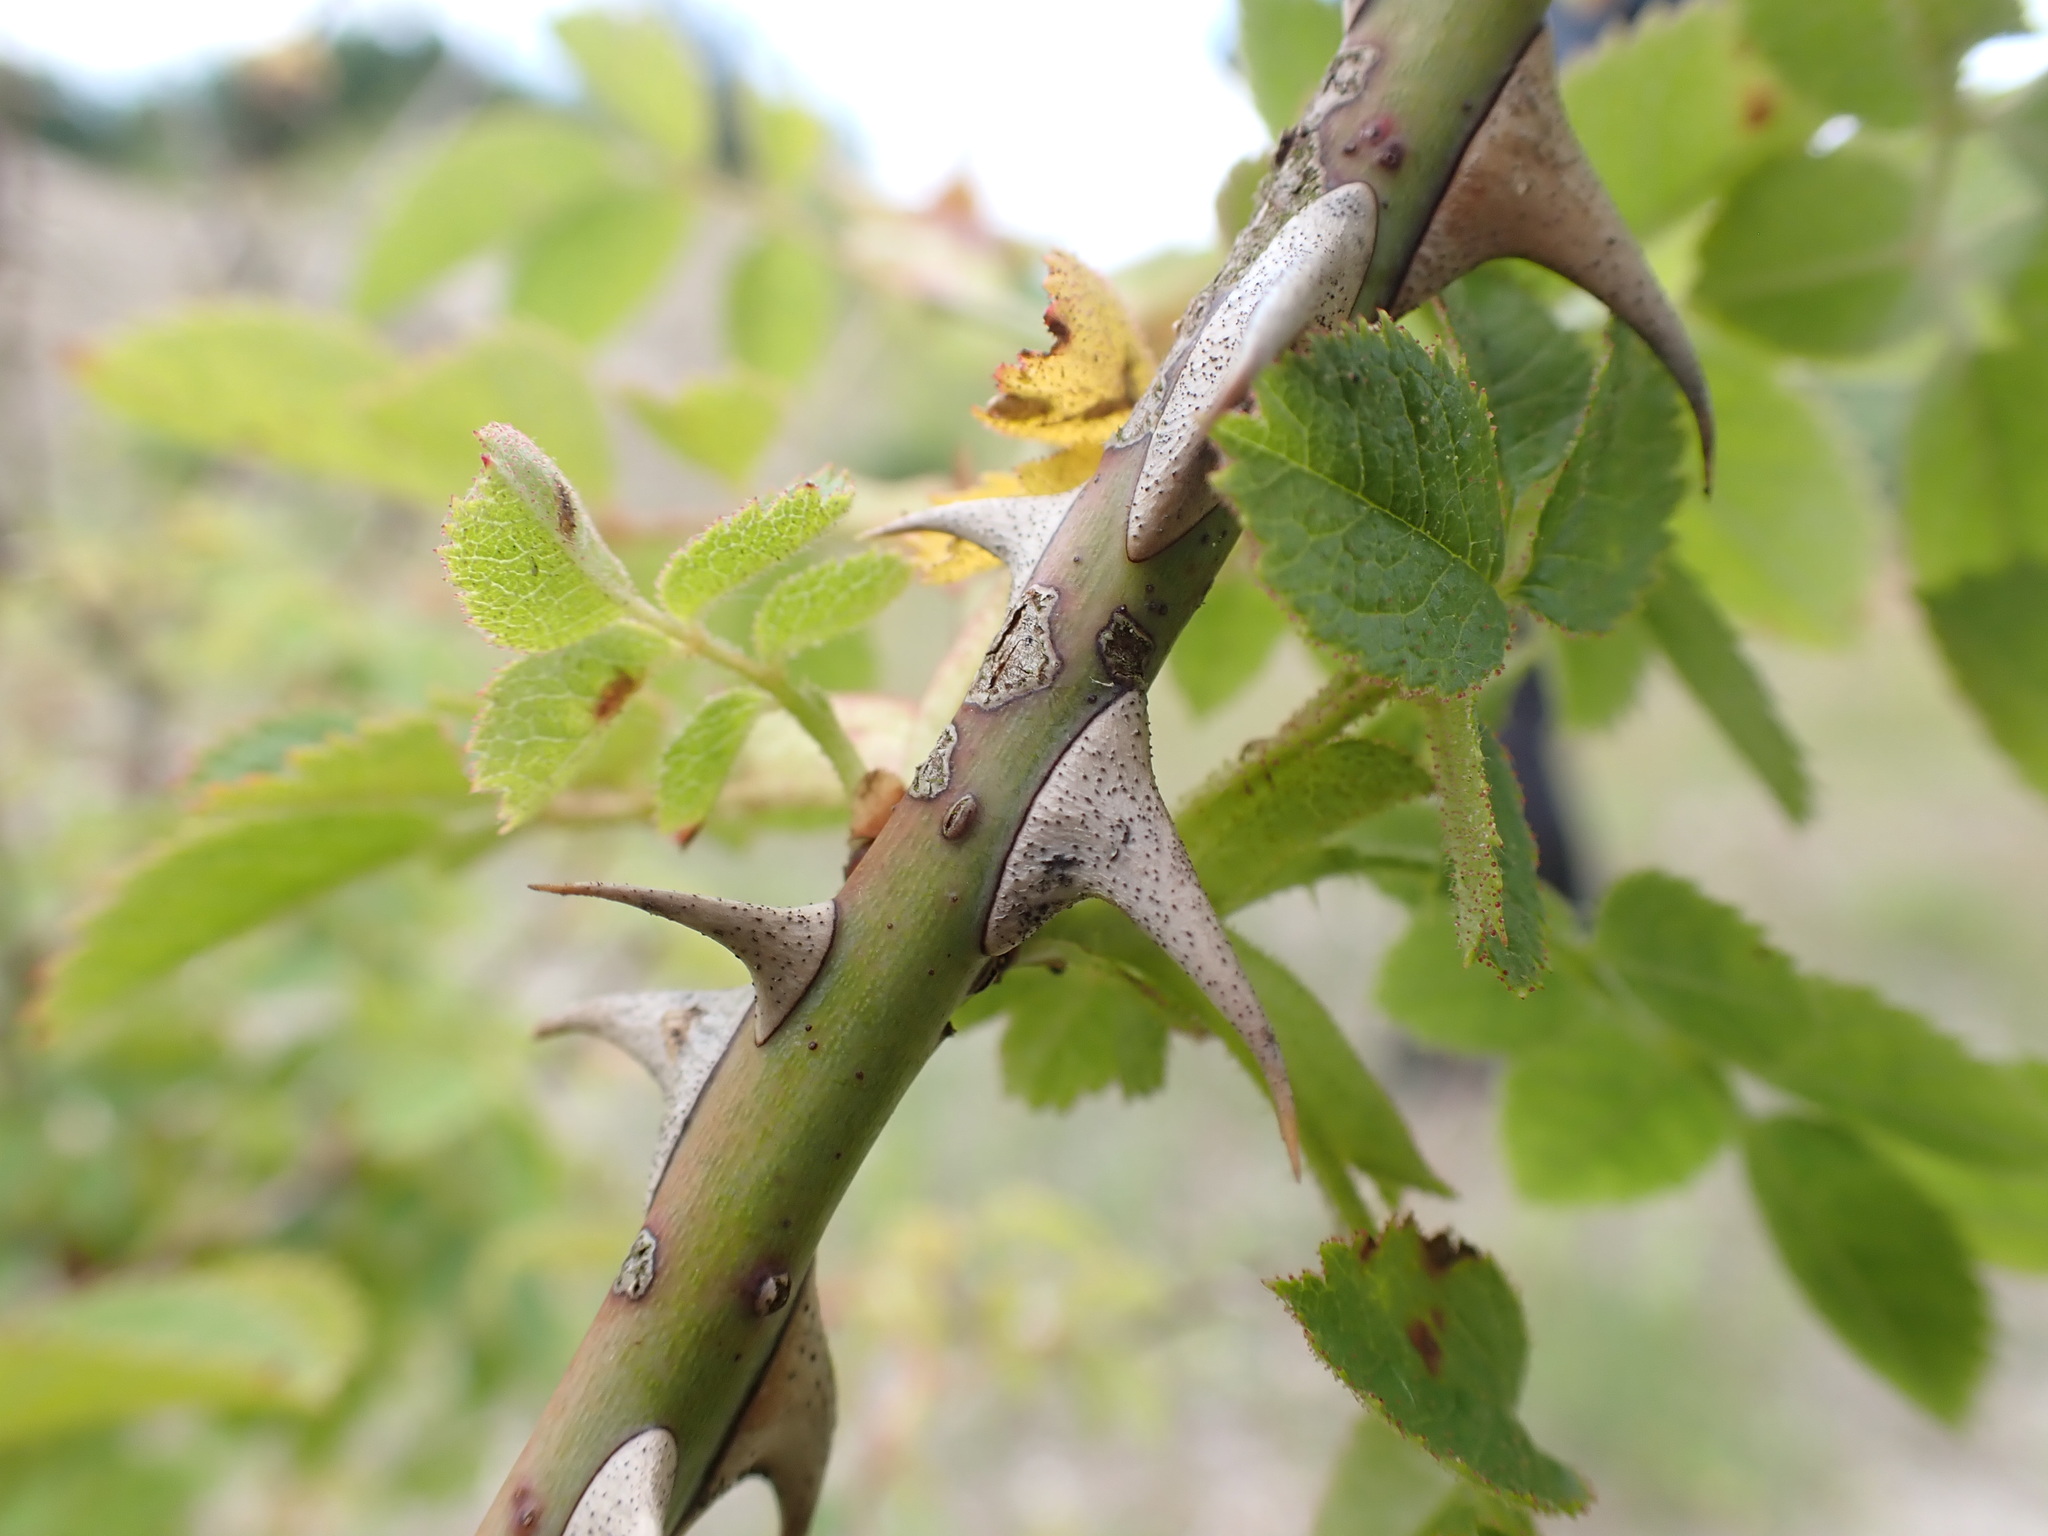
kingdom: Plantae
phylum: Tracheophyta
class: Magnoliopsida
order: Rosales
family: Rosaceae
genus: Rosa
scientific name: Rosa rubiginosa
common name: Sweet-briar
